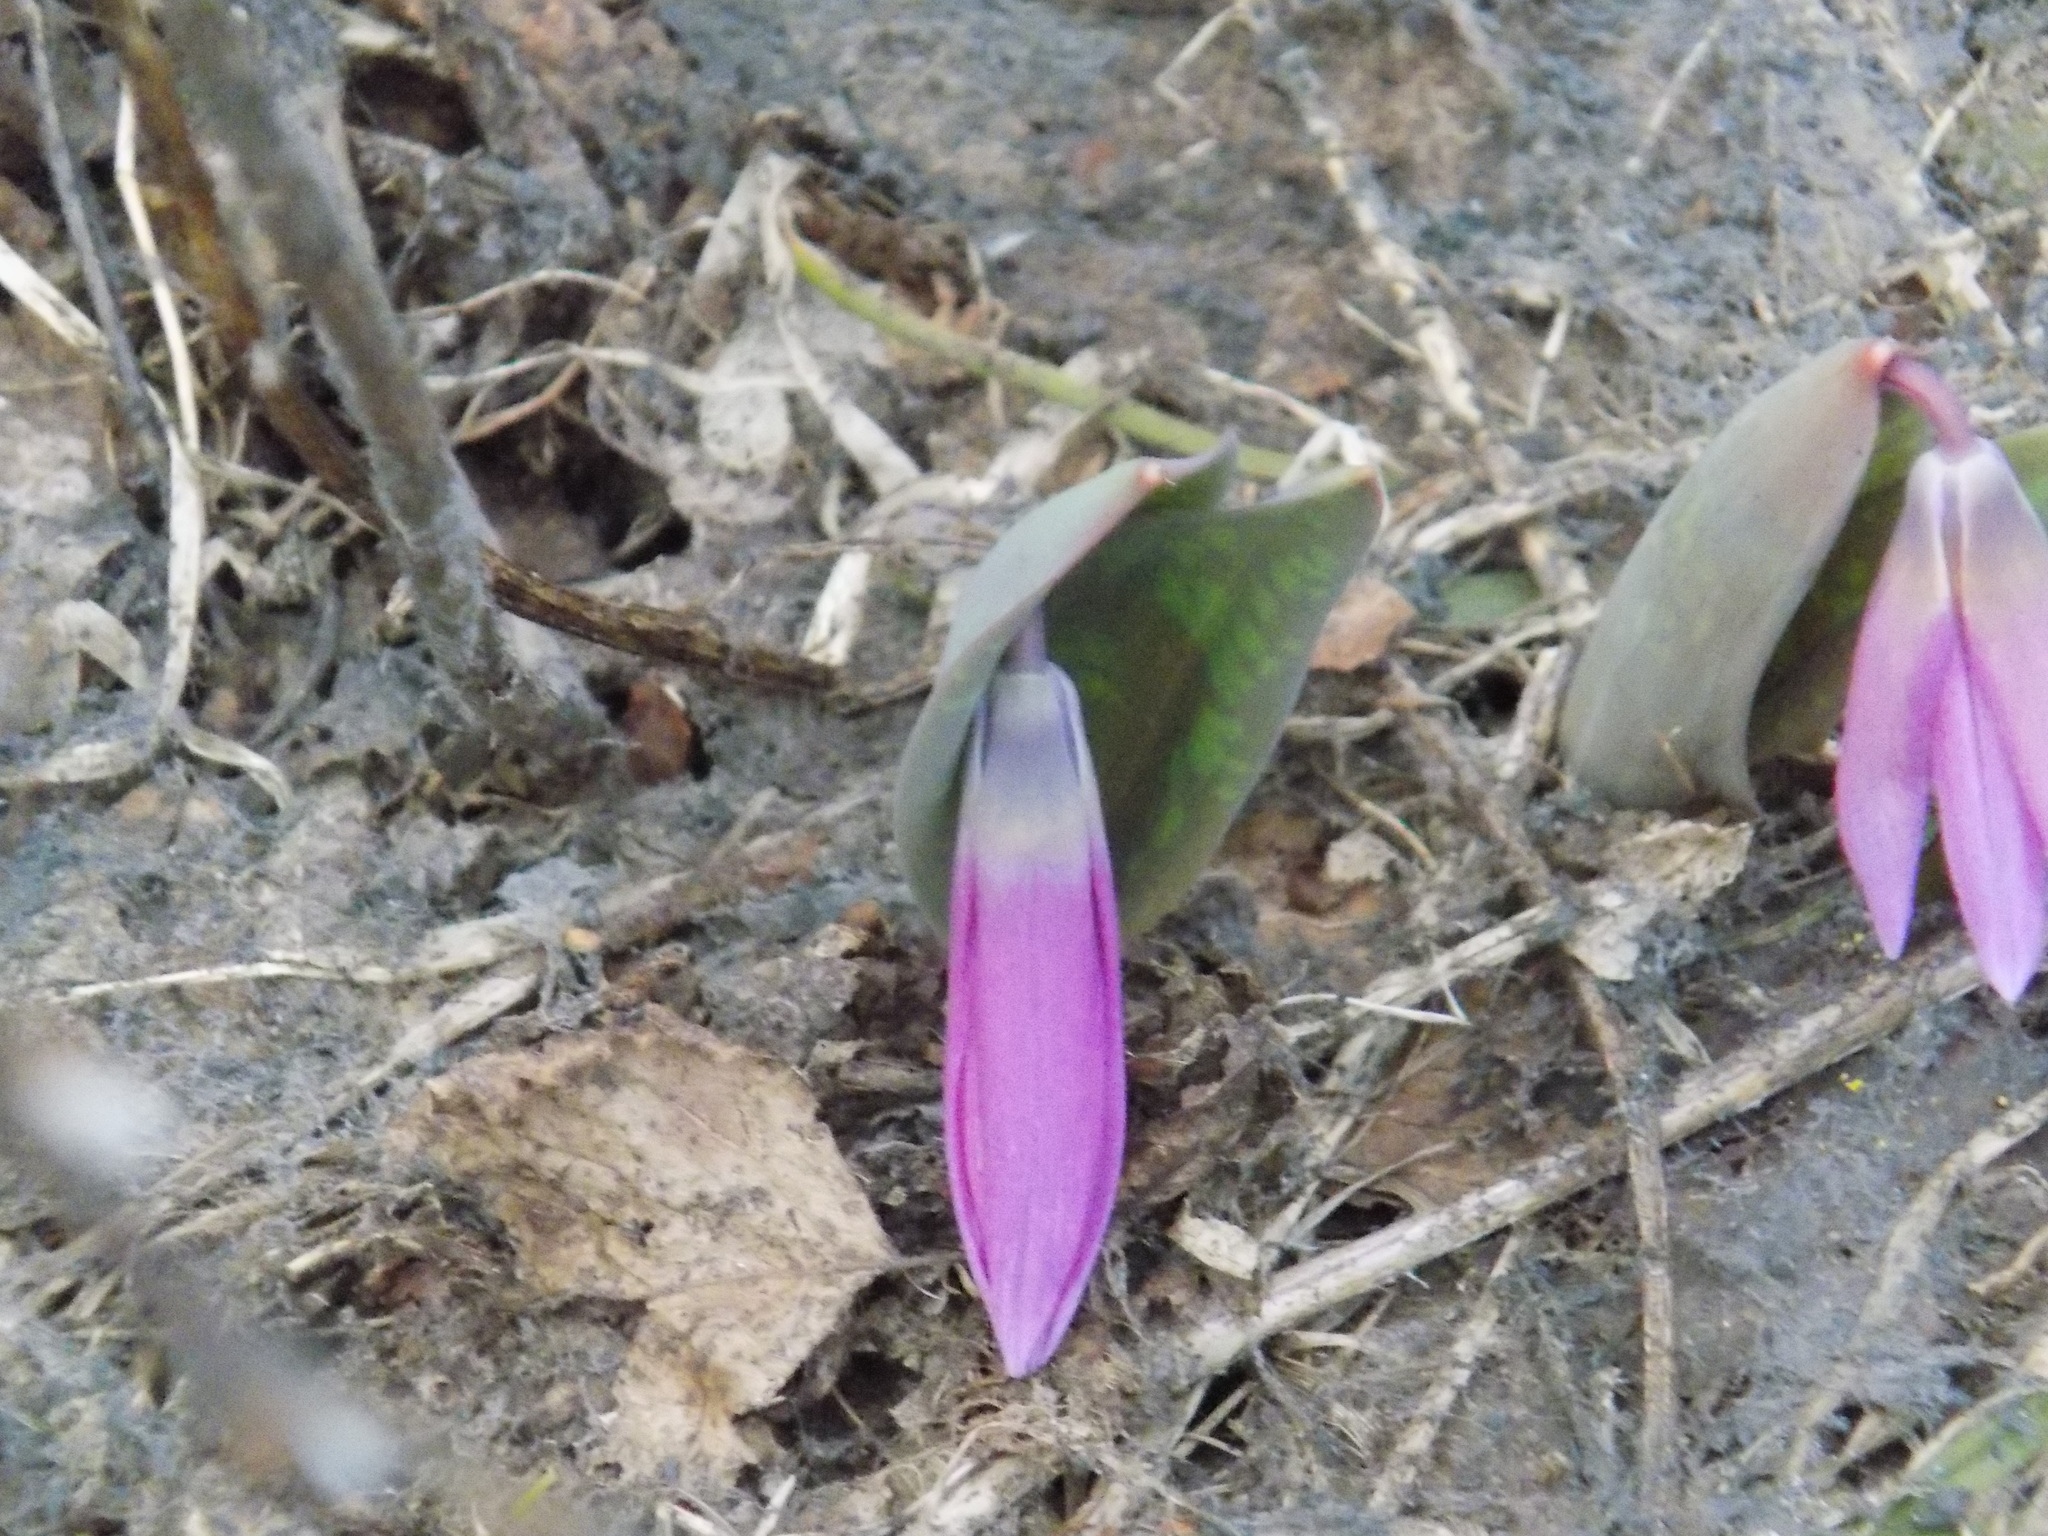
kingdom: Plantae
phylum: Tracheophyta
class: Liliopsida
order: Liliales
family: Liliaceae
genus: Erythronium
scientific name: Erythronium sibiricum
